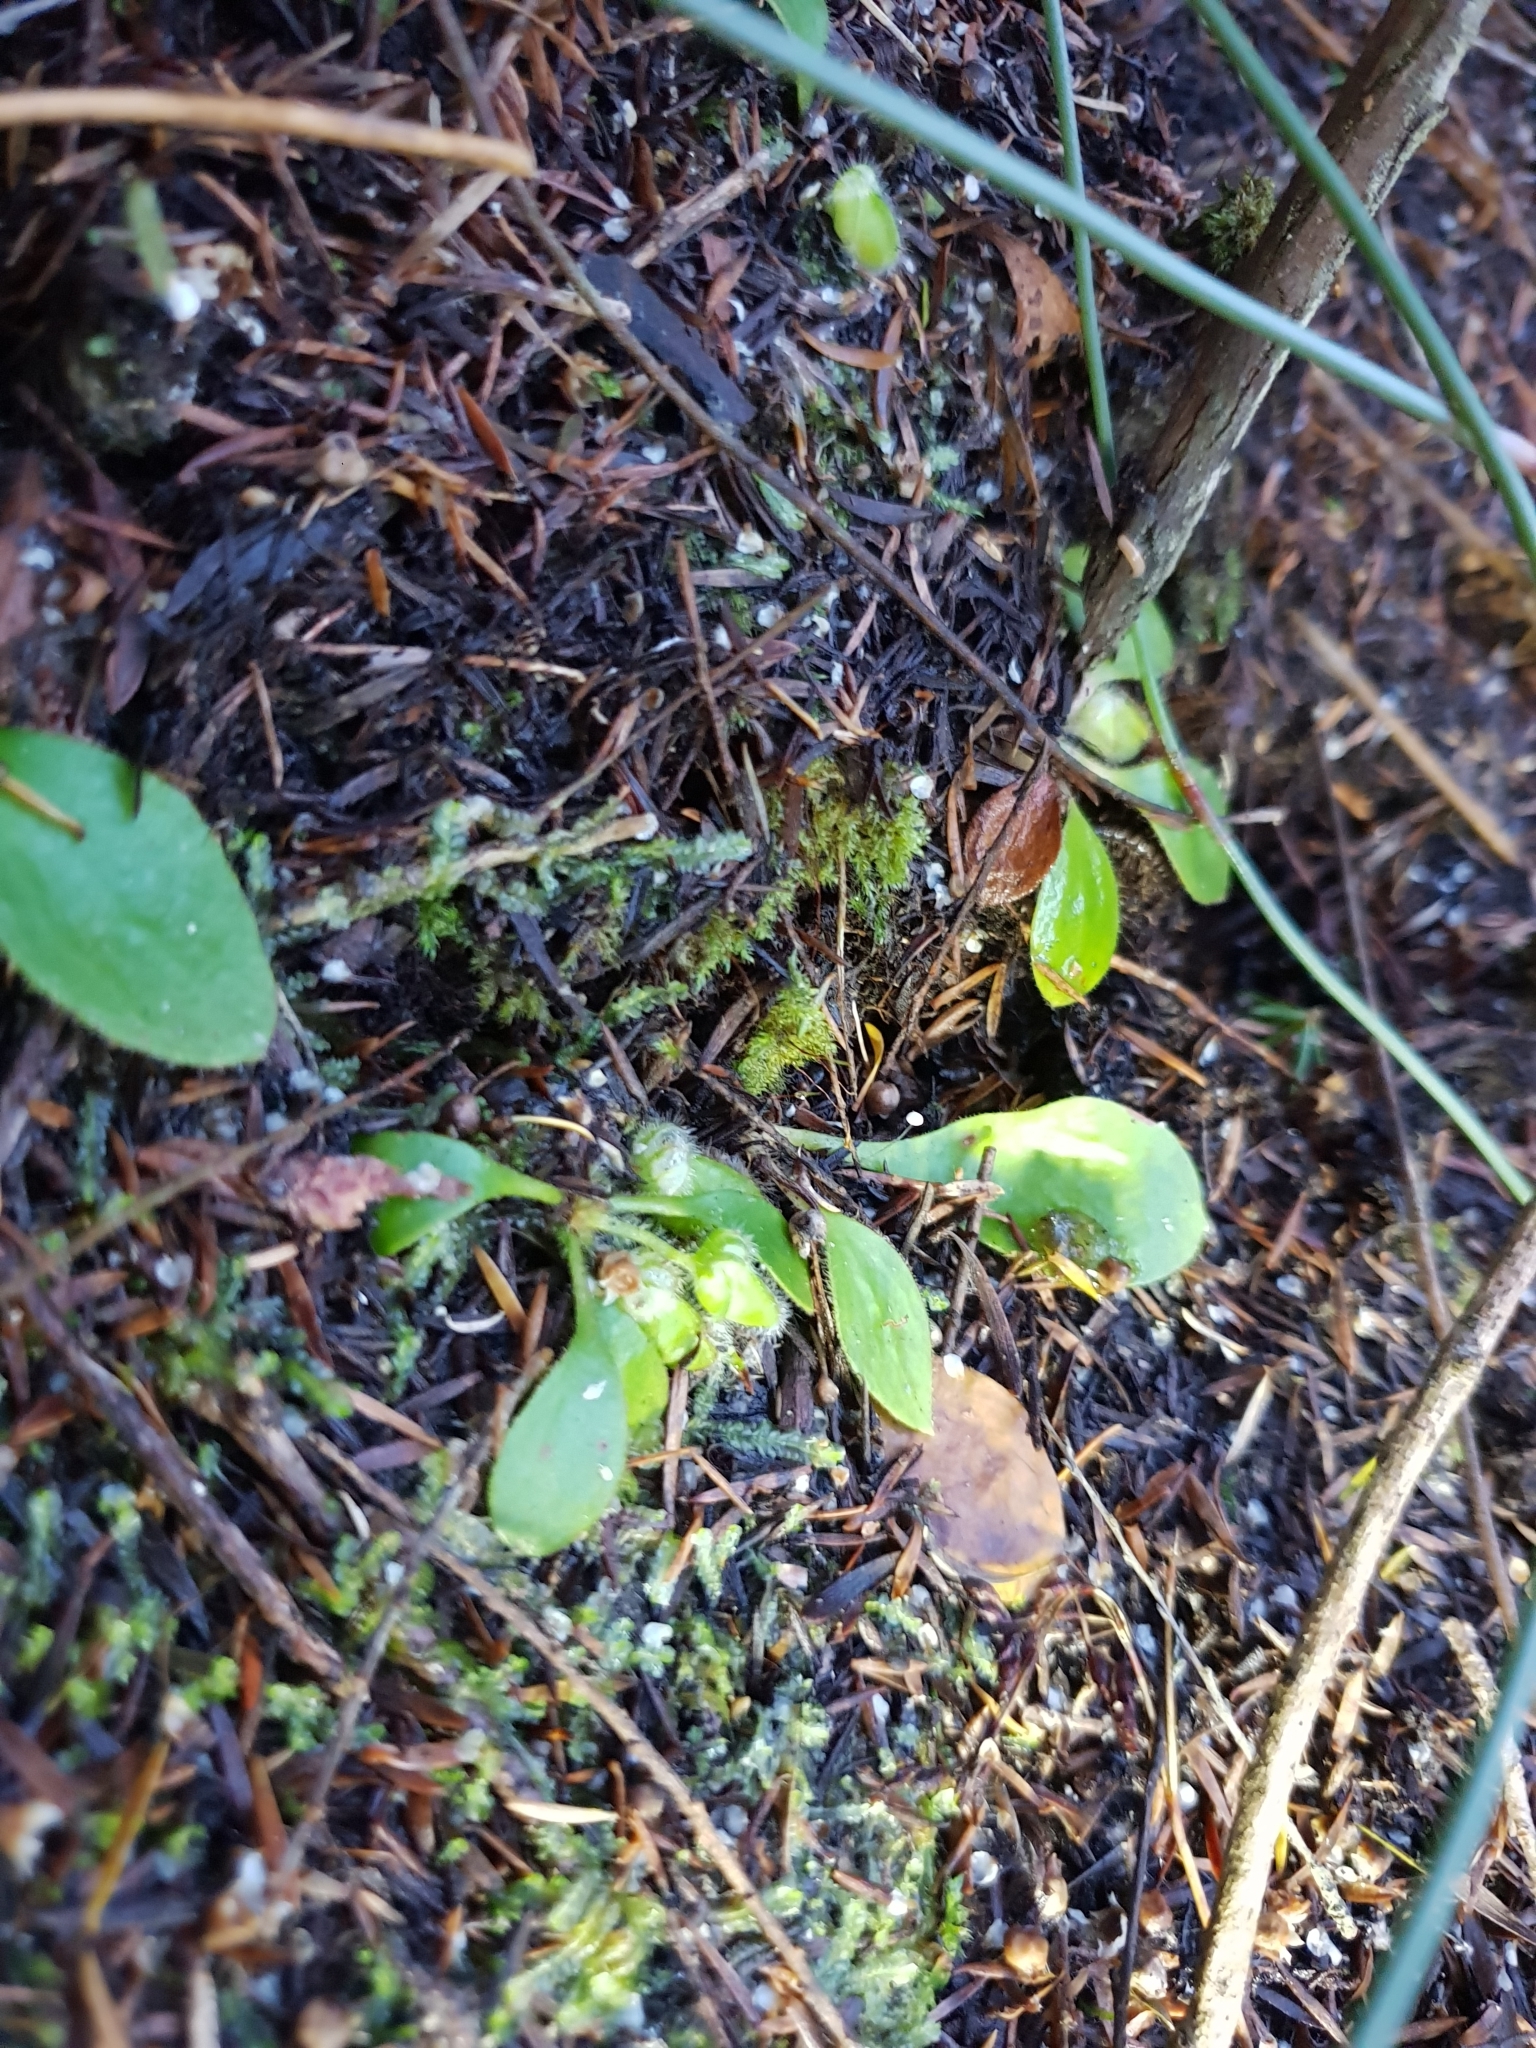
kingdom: Plantae
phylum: Tracheophyta
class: Magnoliopsida
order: Oxalidales
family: Cephalotaceae
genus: Cephalotus
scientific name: Cephalotus follicularis
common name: Australian pitcher plant
